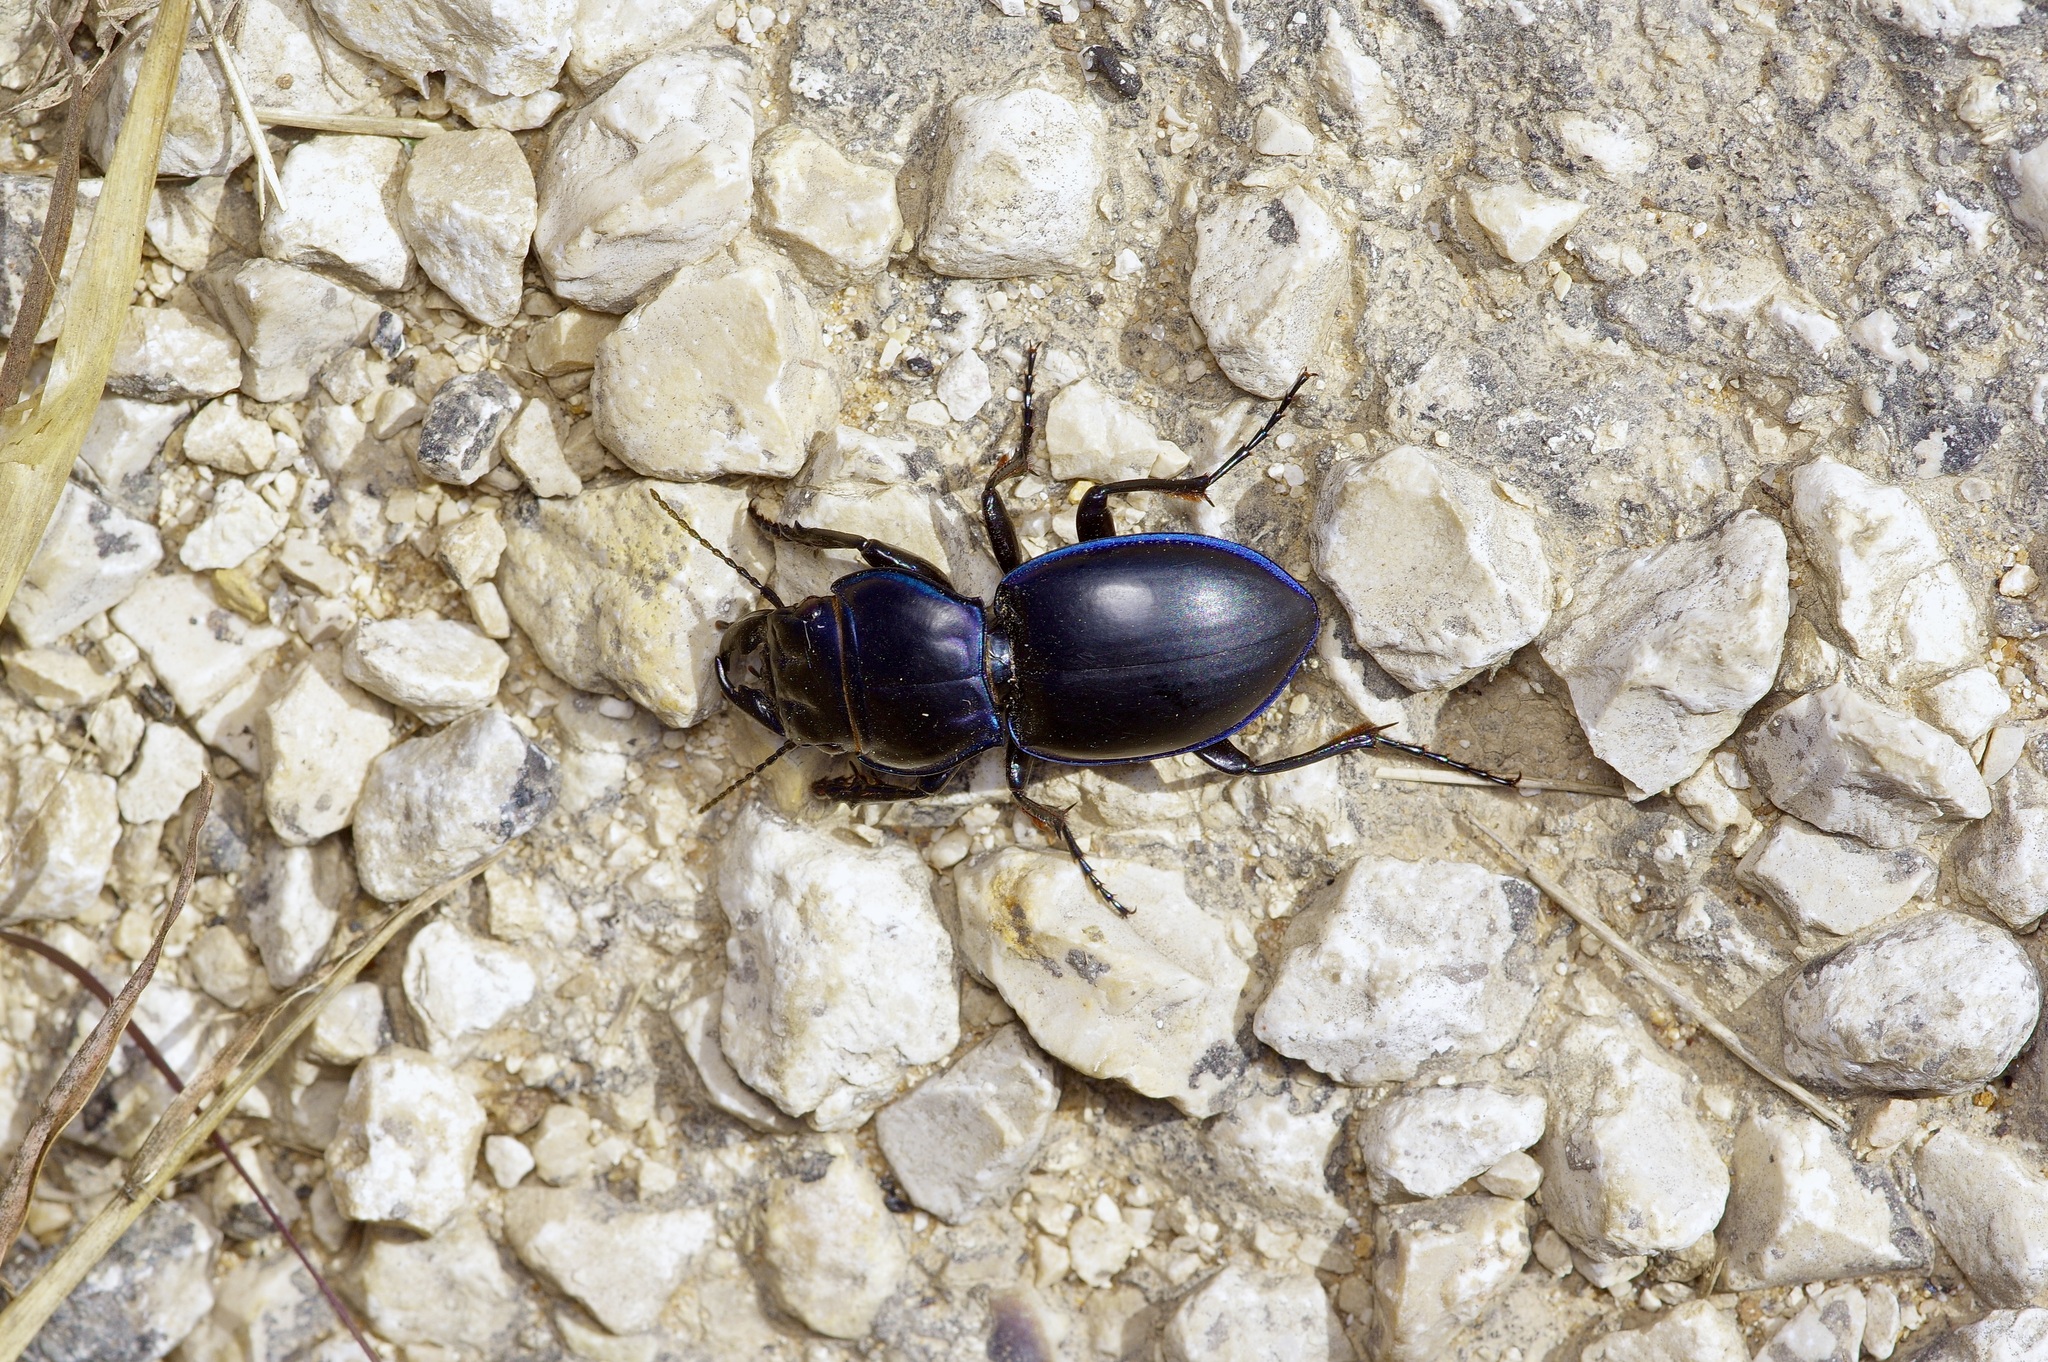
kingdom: Animalia
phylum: Arthropoda
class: Insecta
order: Coleoptera
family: Carabidae
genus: Pasimachus
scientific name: Pasimachus elongatus
